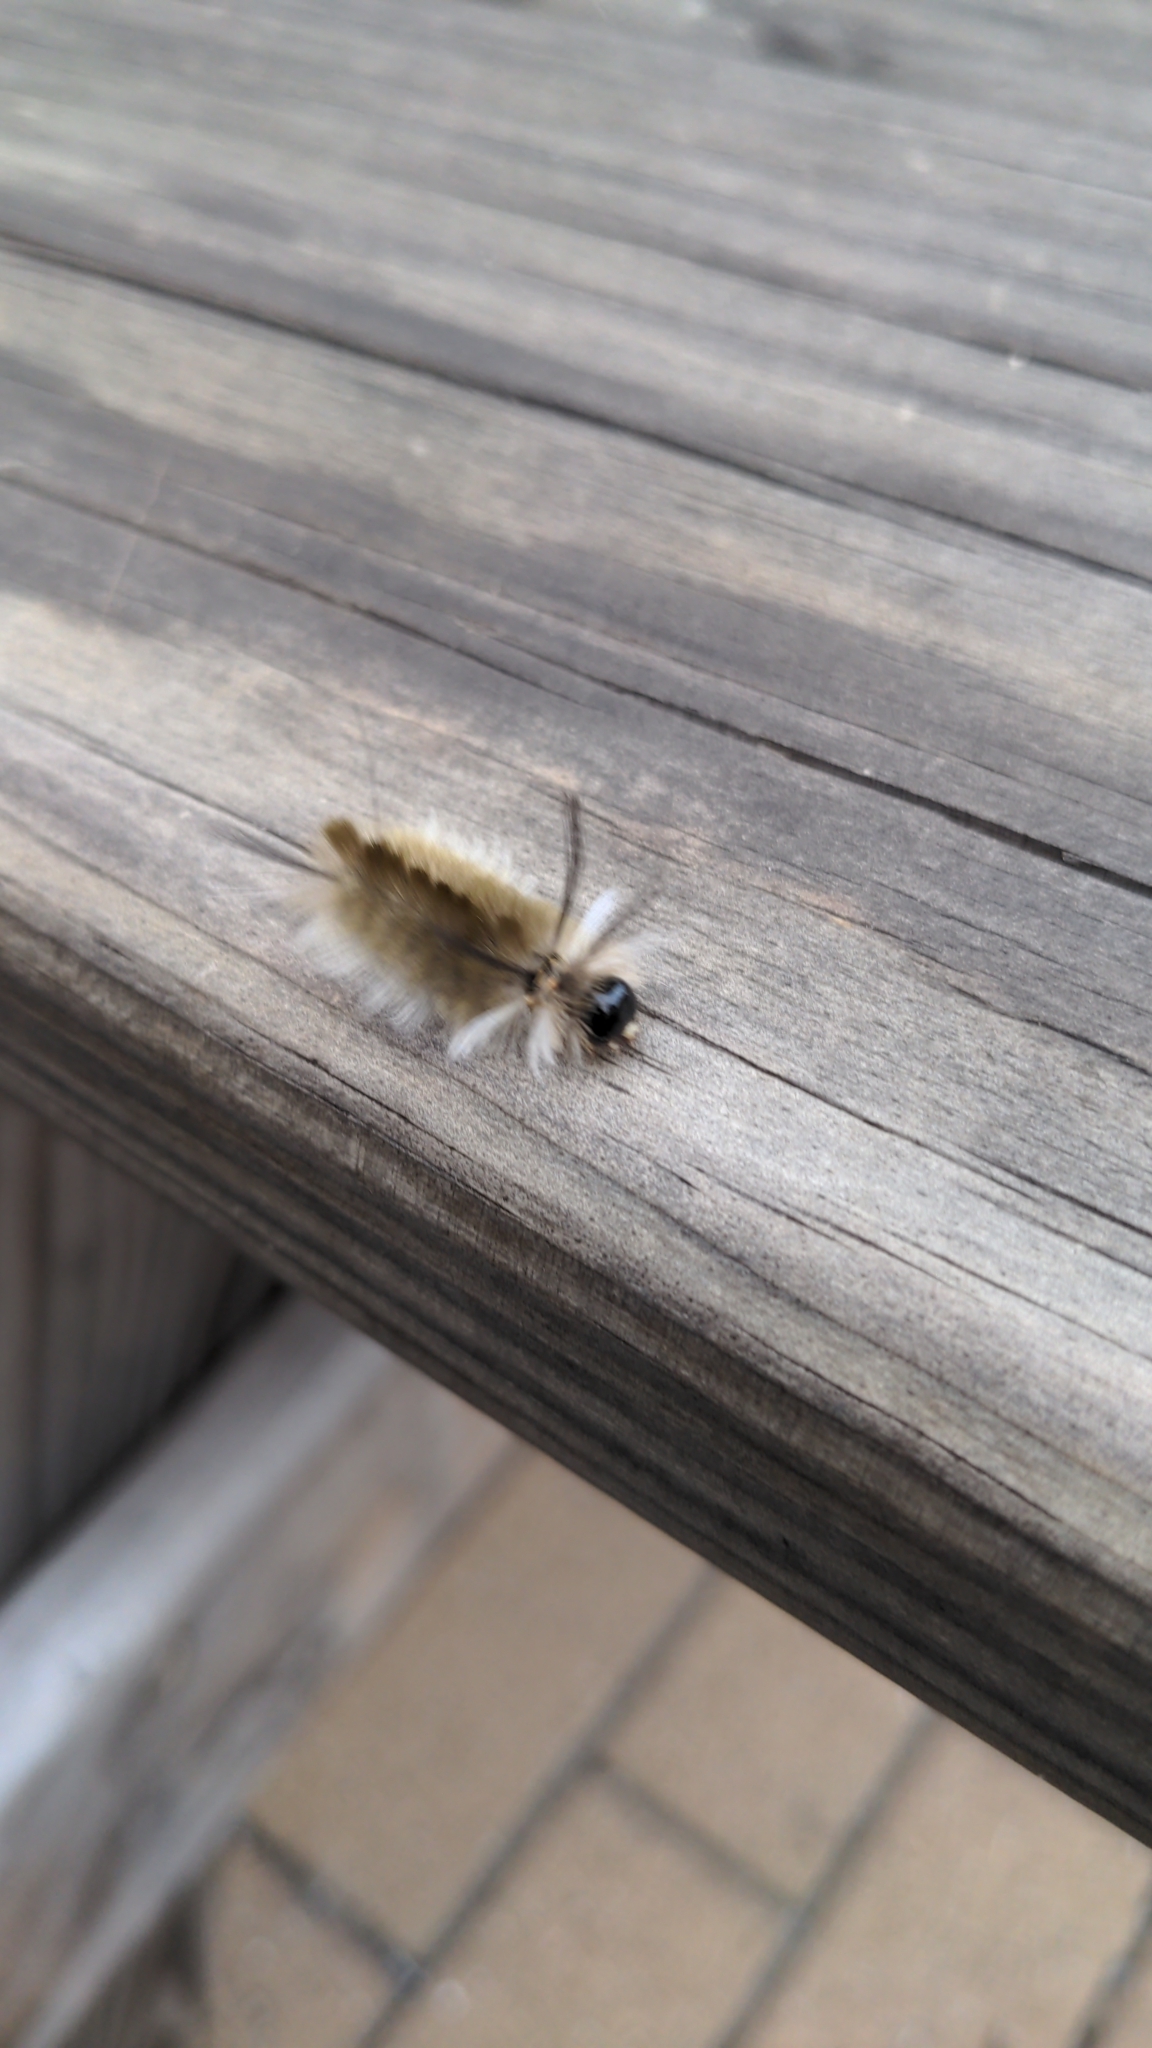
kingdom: Animalia
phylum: Arthropoda
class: Insecta
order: Lepidoptera
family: Erebidae
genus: Halysidota
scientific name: Halysidota tessellaris
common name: Banded tussock moth
